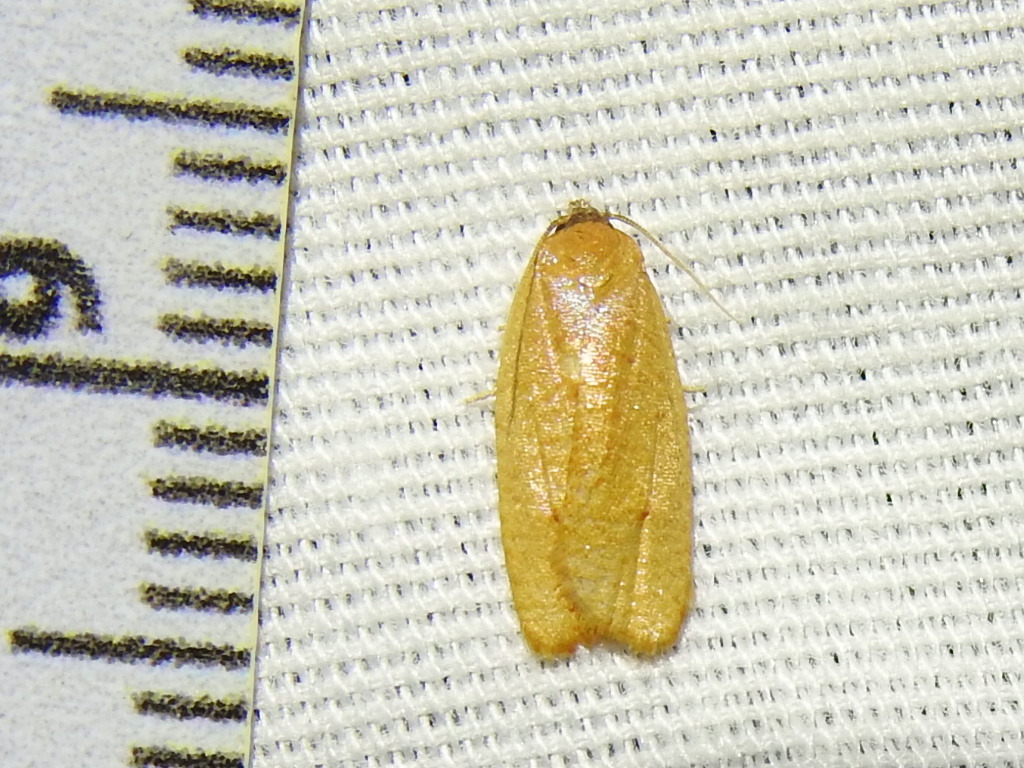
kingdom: Animalia
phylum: Arthropoda
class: Insecta
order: Lepidoptera
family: Tortricidae
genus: Sparganothis
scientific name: Sparganothis demissana
